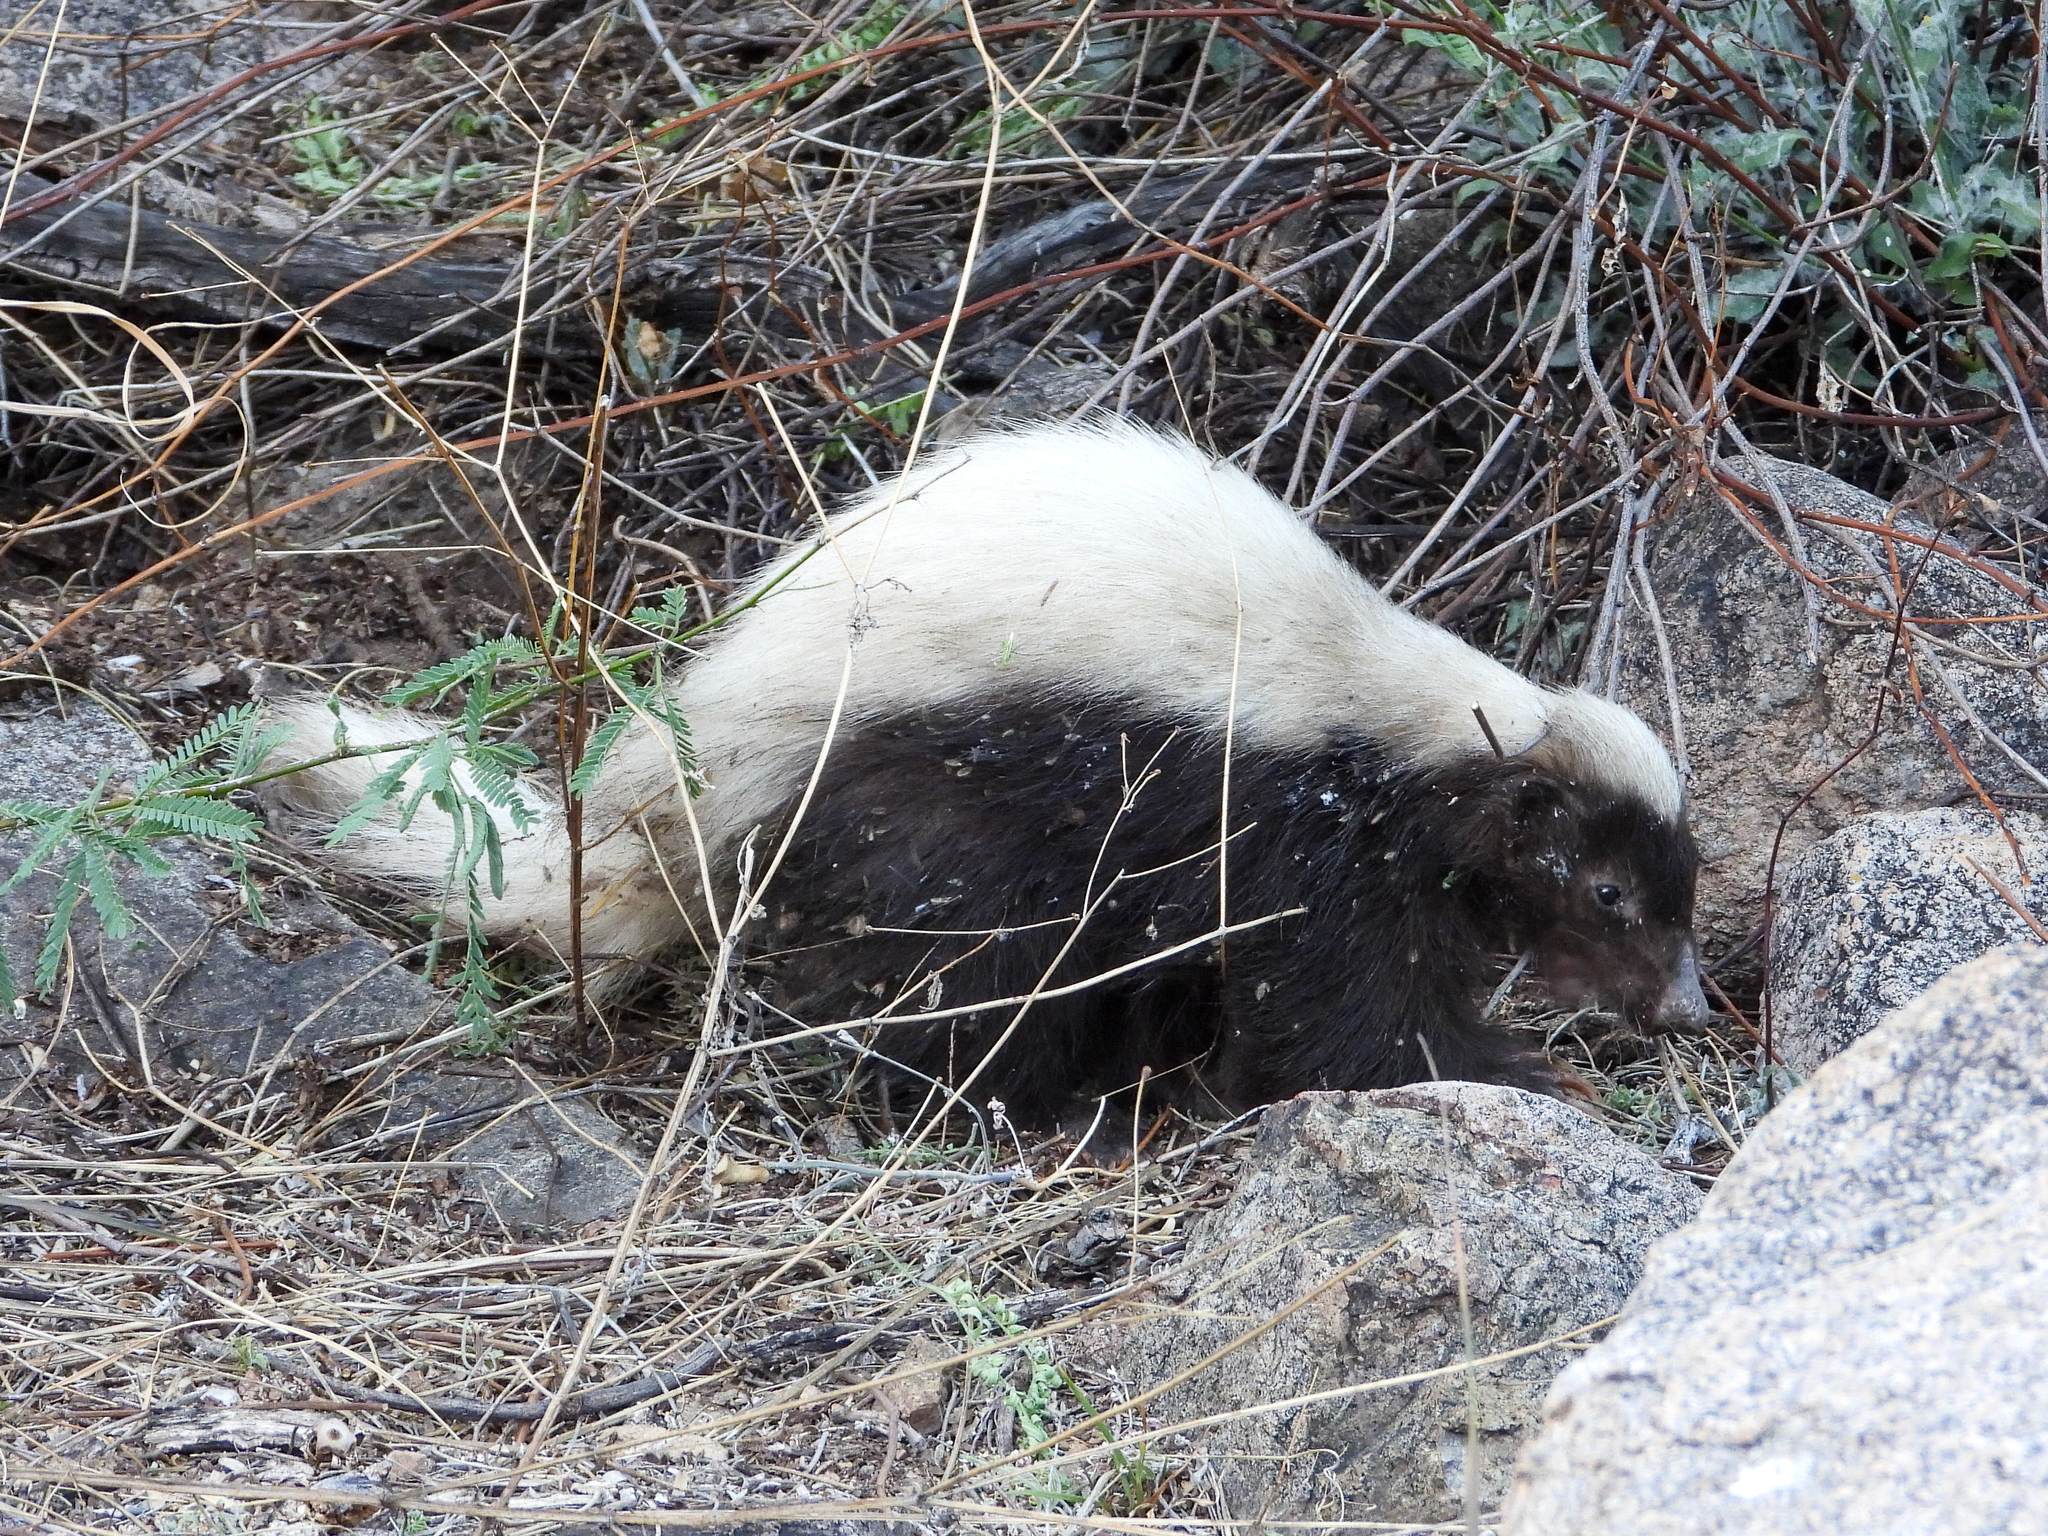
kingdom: Animalia
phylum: Chordata
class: Mammalia
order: Carnivora
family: Mephitidae
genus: Conepatus
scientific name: Conepatus leuconotus
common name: Eastern hog-nosed skunk
